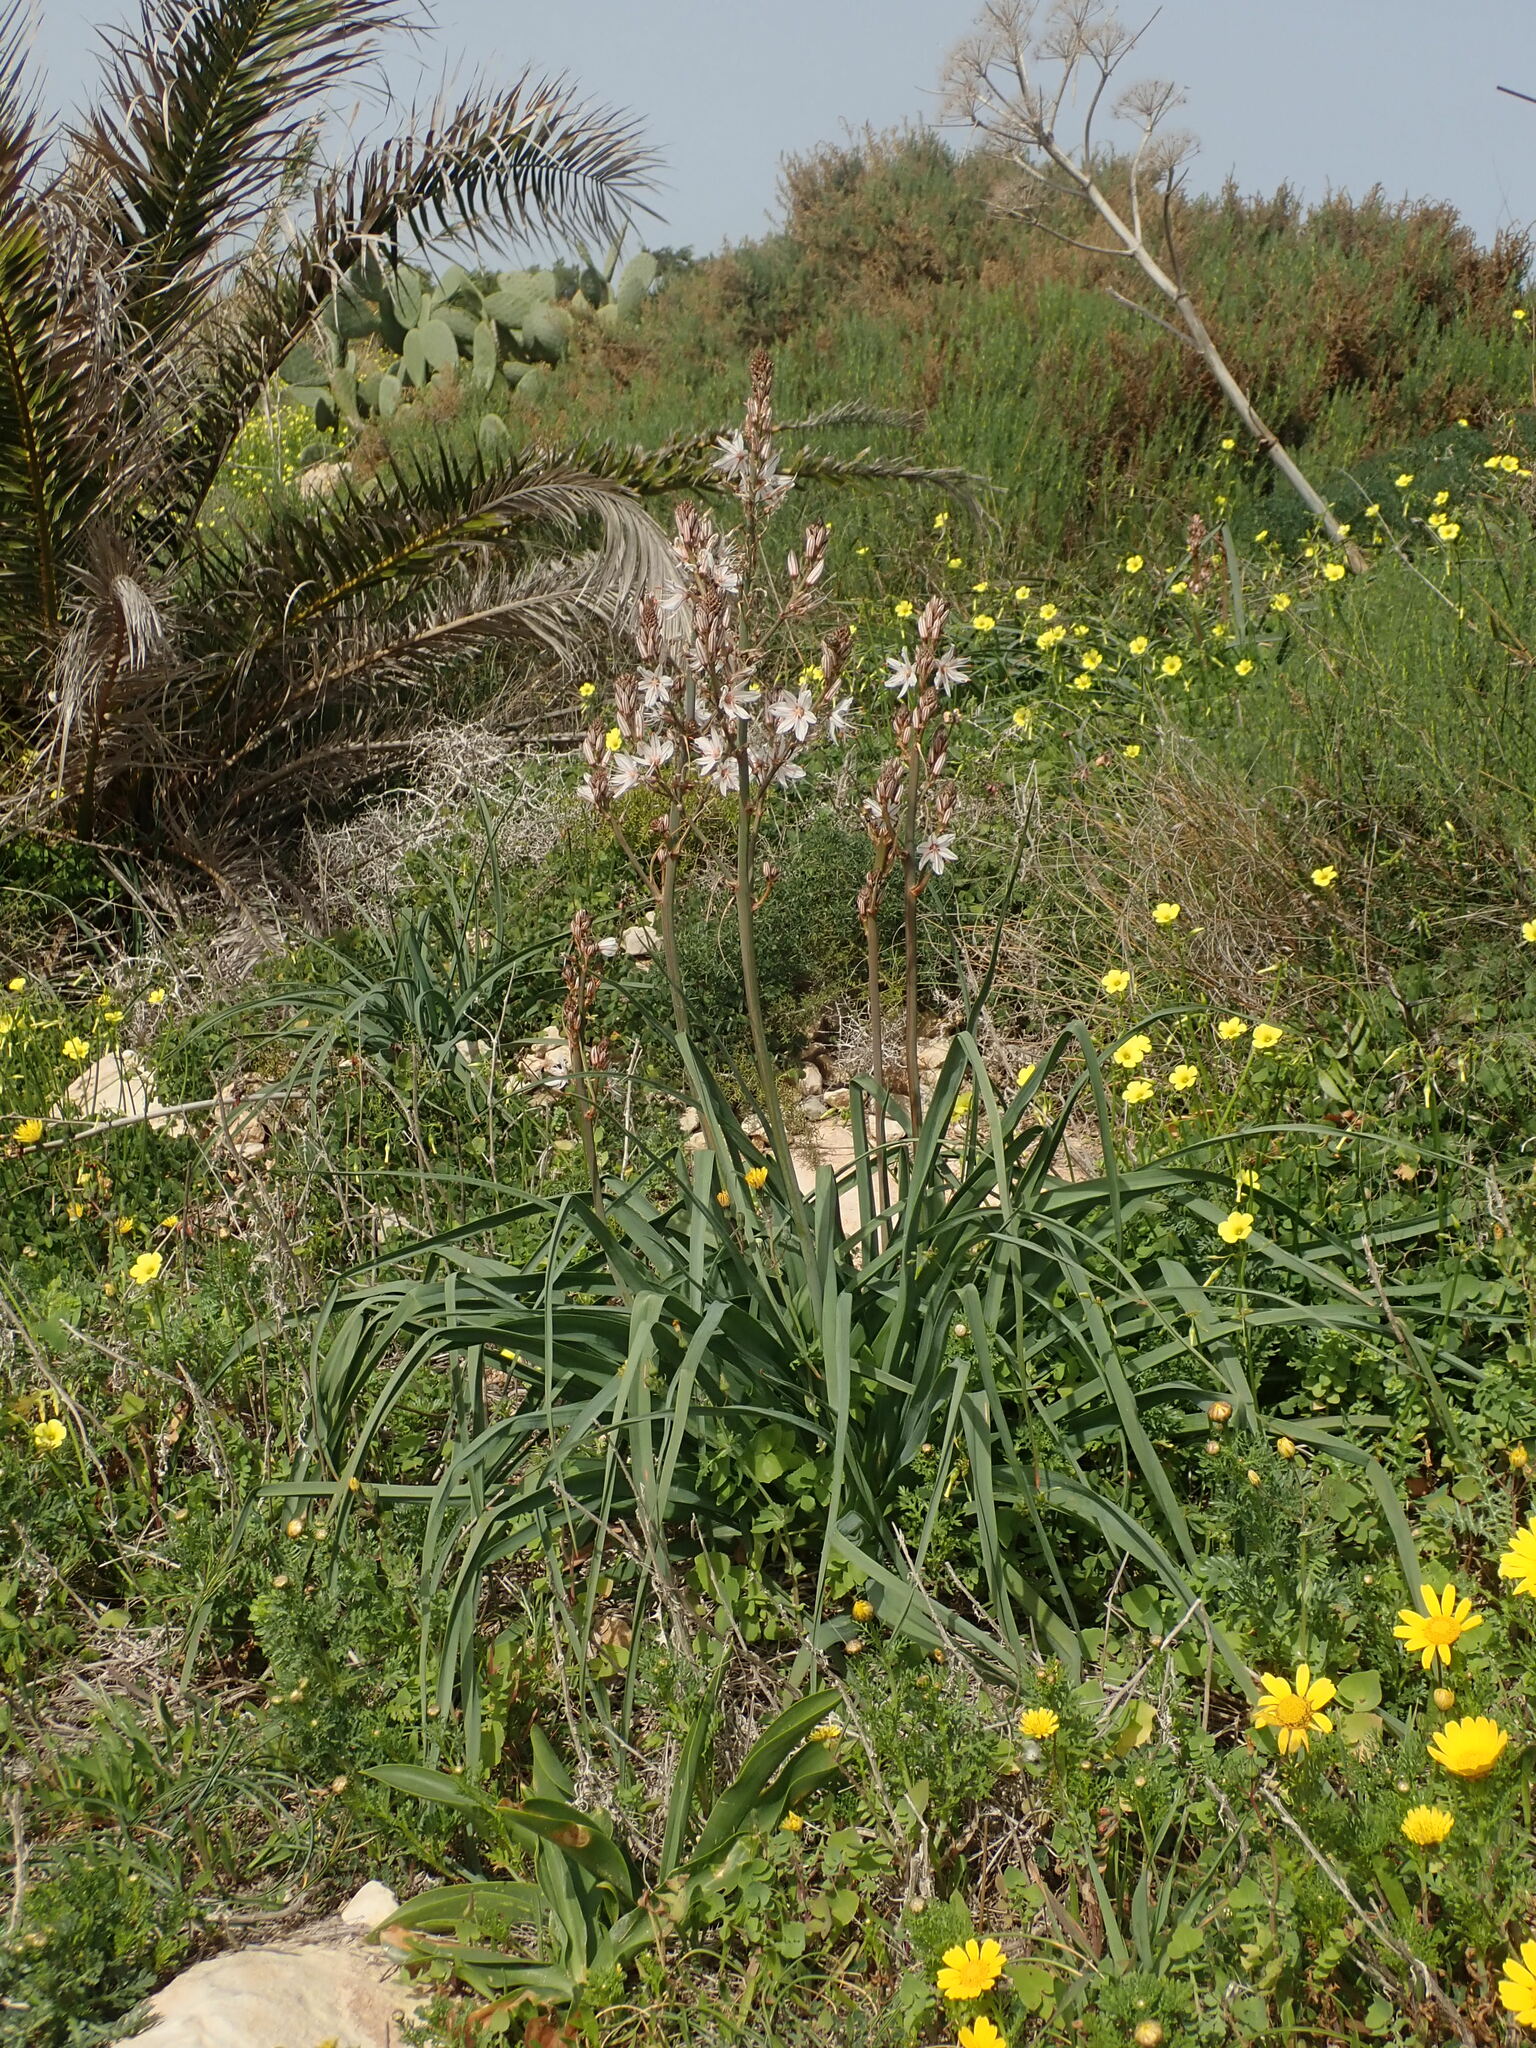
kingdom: Plantae
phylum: Tracheophyta
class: Liliopsida
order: Asparagales
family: Asphodelaceae
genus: Asphodelus
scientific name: Asphodelus ramosus
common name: Silverrod
